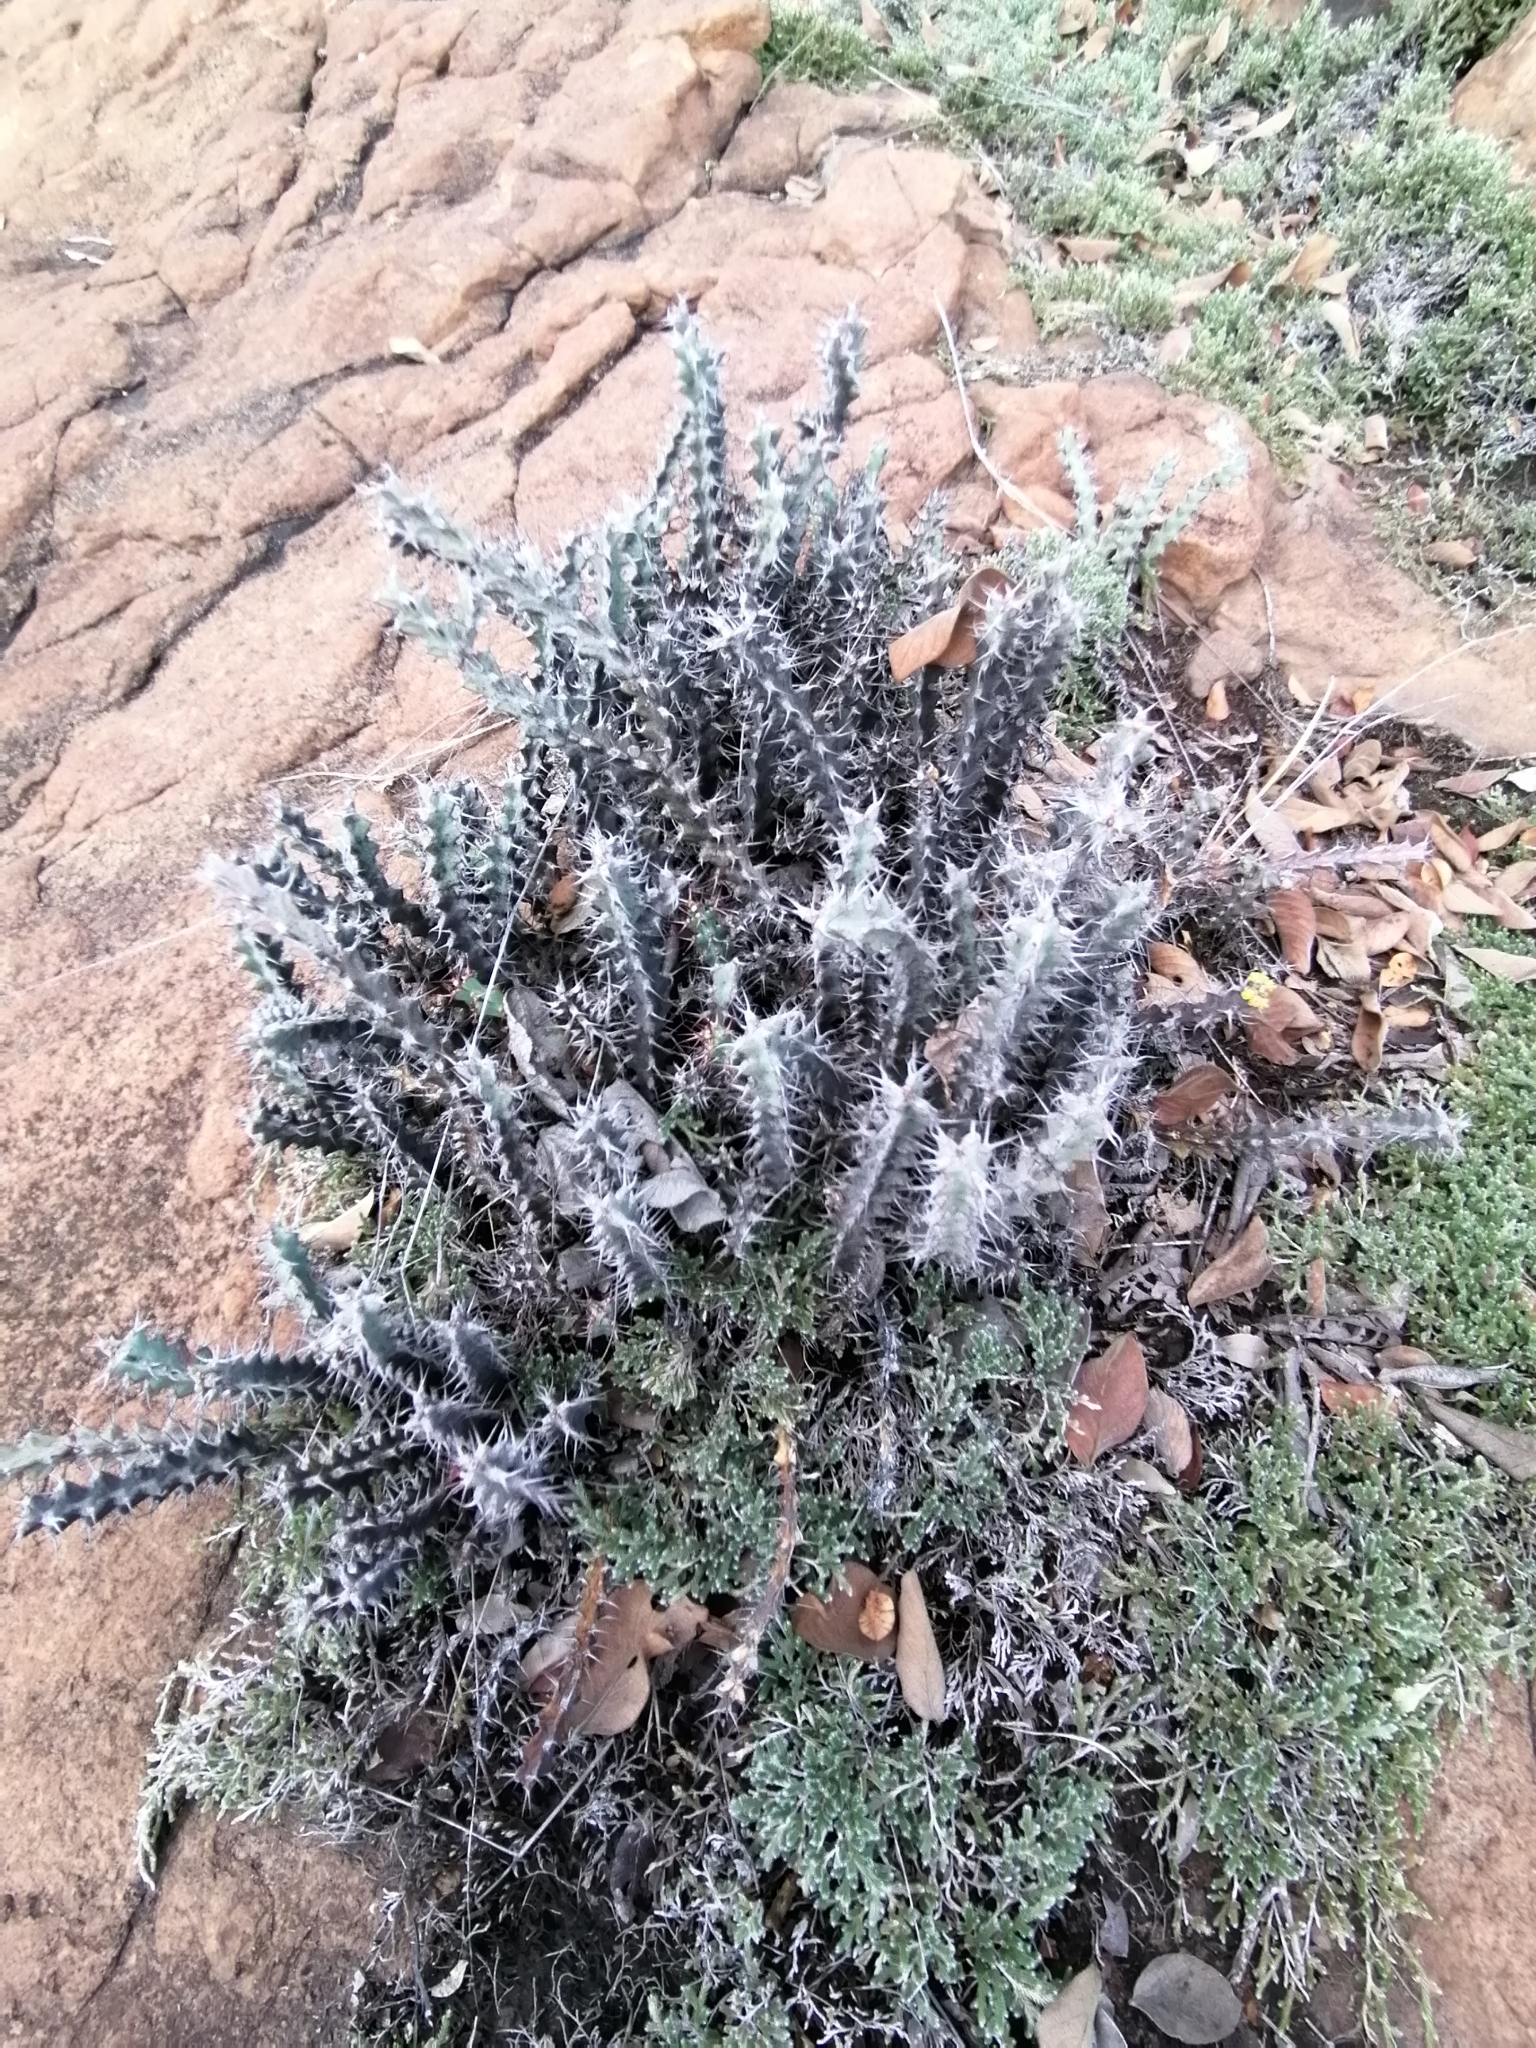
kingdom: Plantae
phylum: Tracheophyta
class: Magnoliopsida
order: Malpighiales
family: Euphorbiaceae
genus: Euphorbia
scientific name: Euphorbia schinzii
